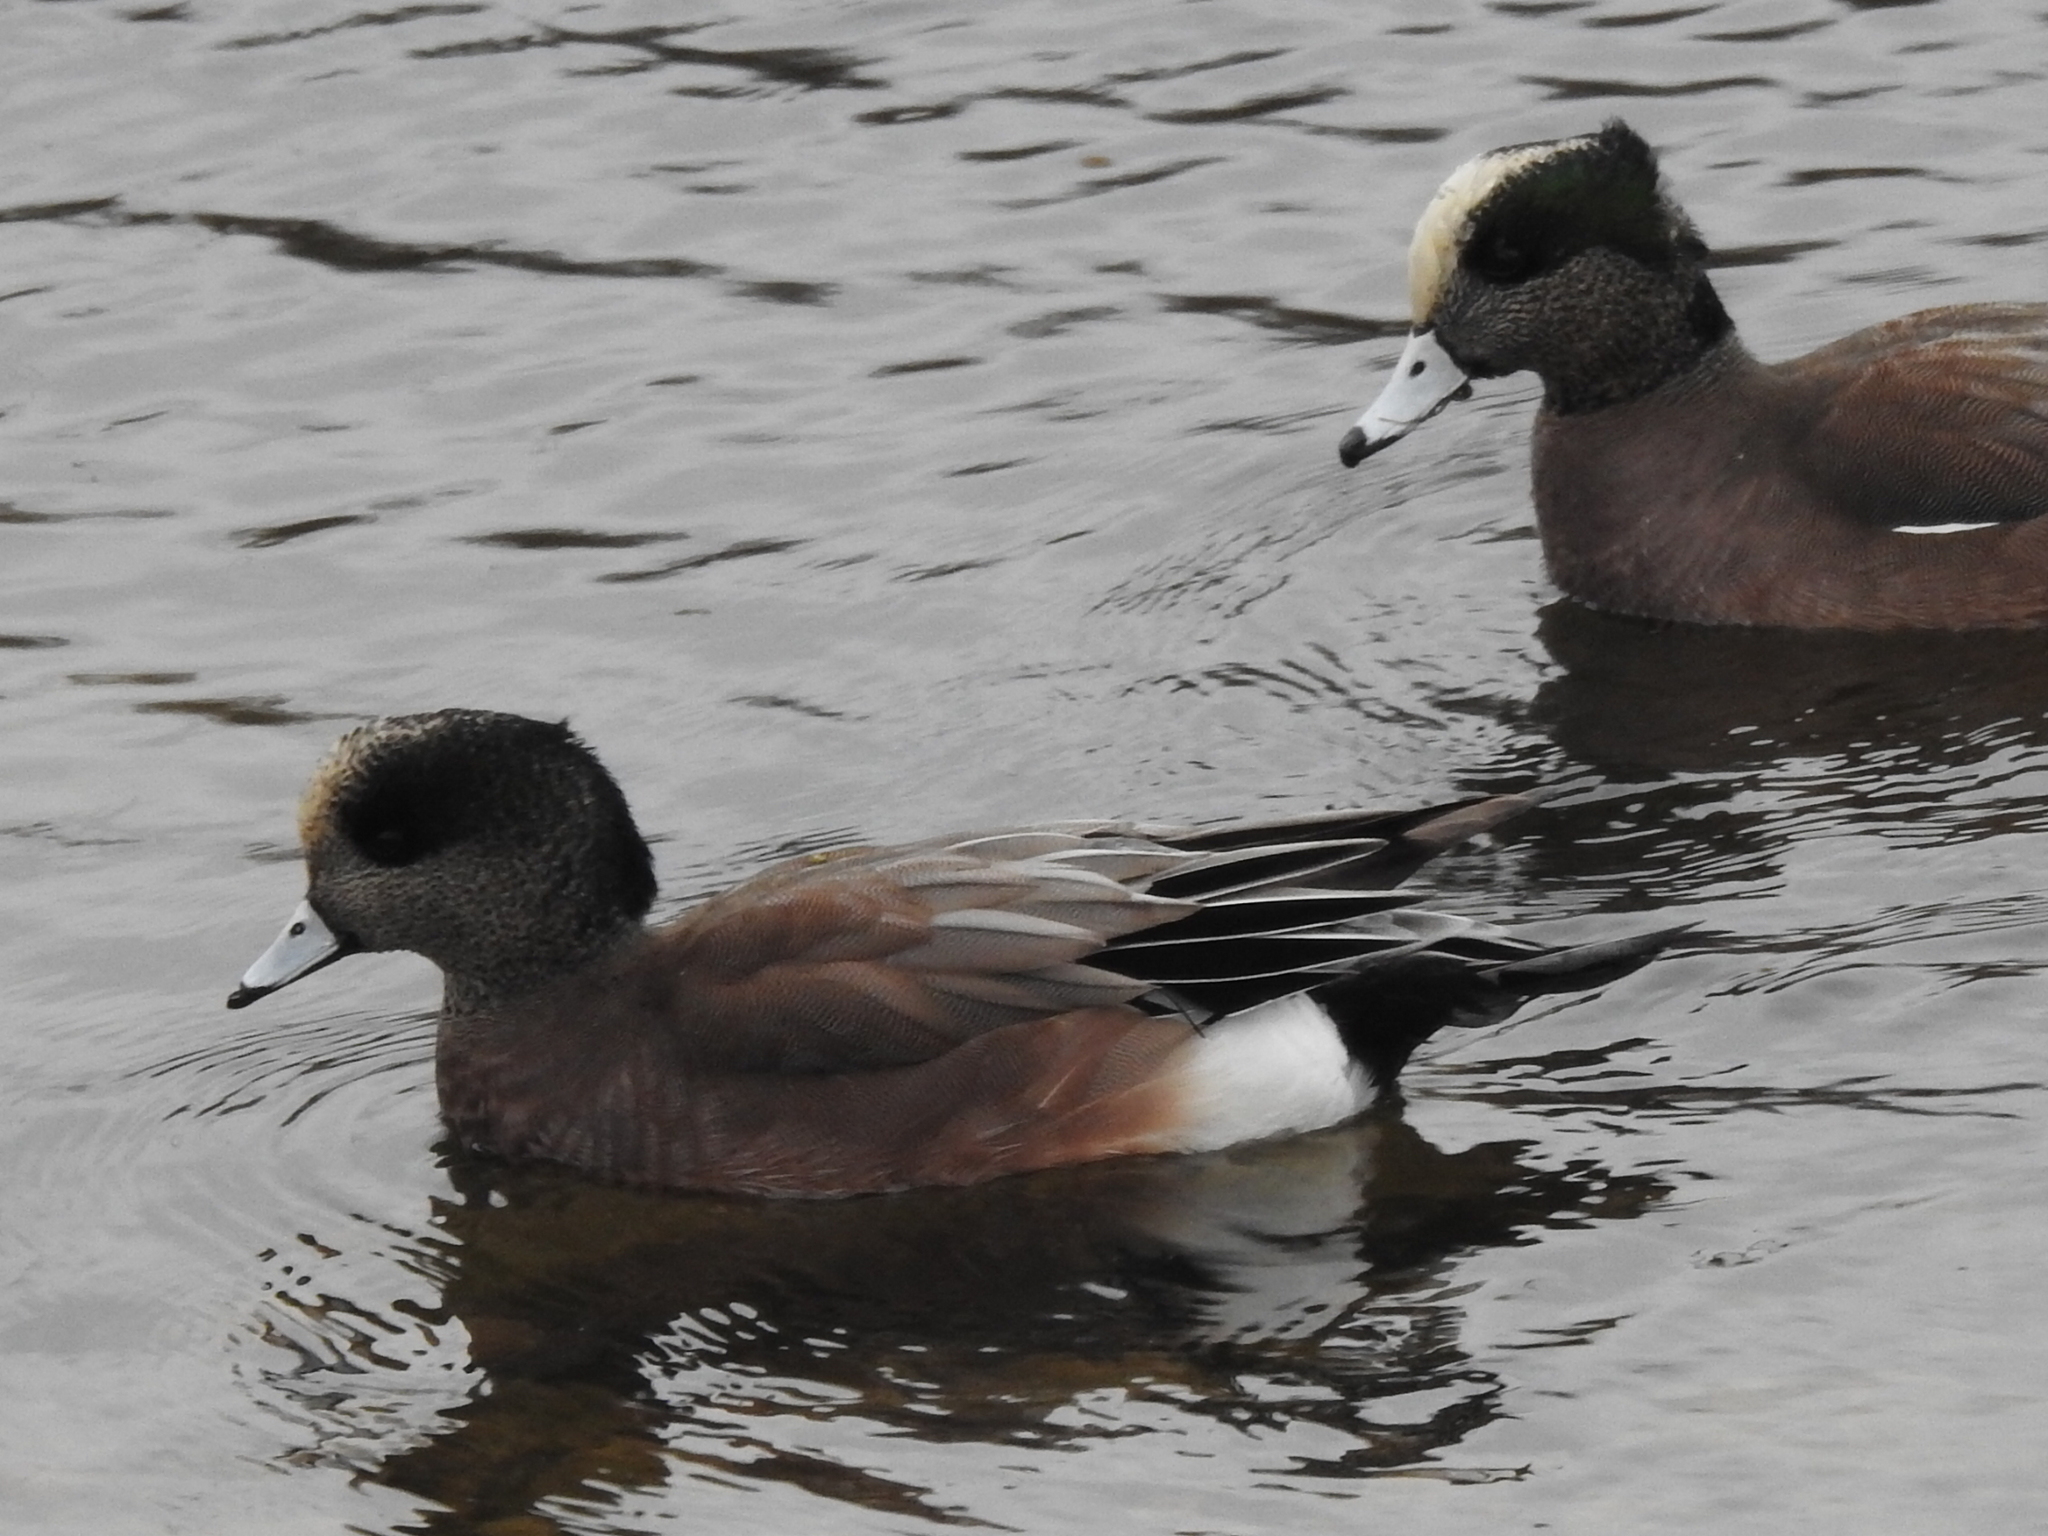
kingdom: Animalia
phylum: Chordata
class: Aves
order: Anseriformes
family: Anatidae
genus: Mareca
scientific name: Mareca americana
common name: American wigeon
